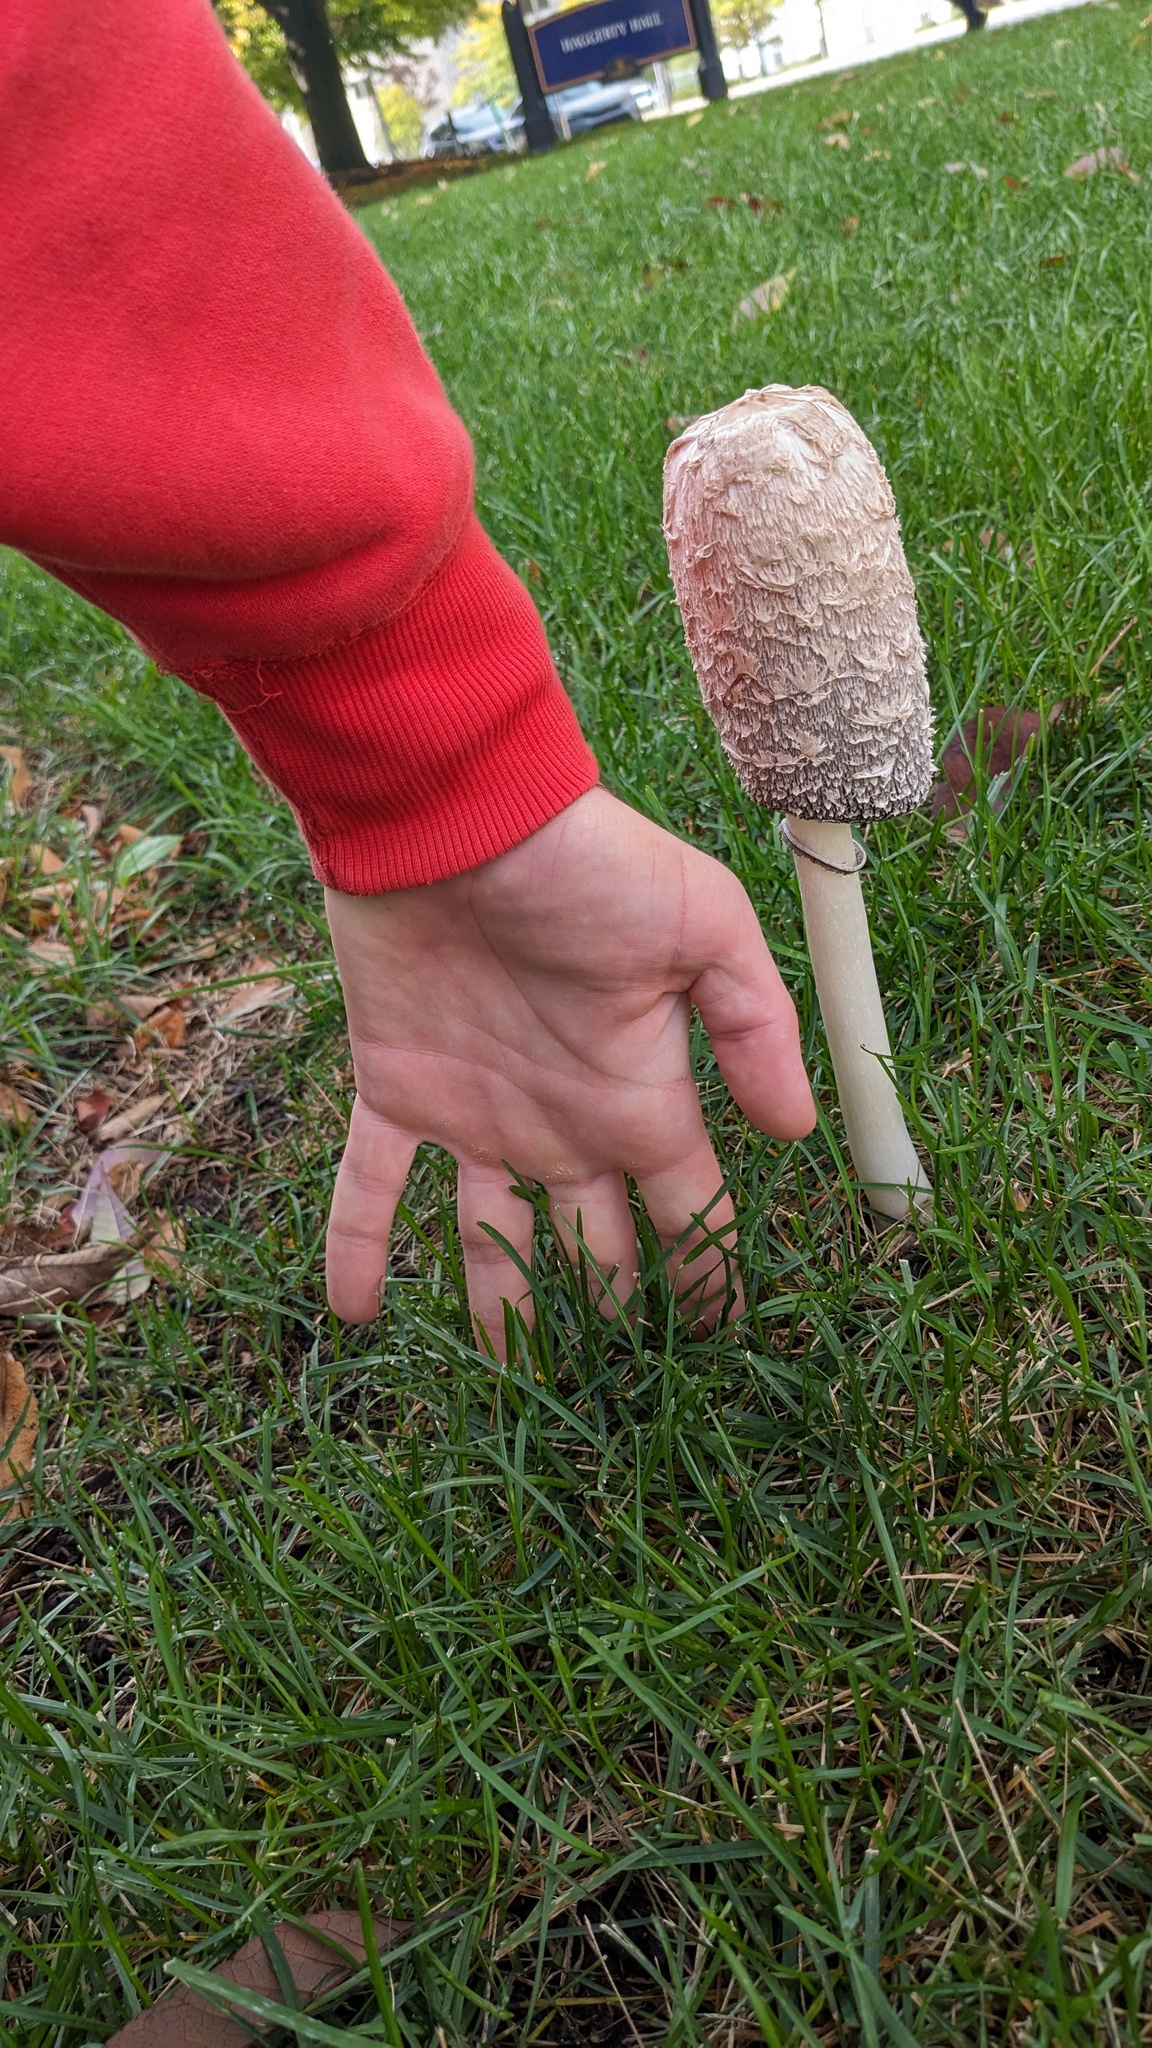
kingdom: Fungi
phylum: Basidiomycota
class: Agaricomycetes
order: Agaricales
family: Agaricaceae
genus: Coprinus
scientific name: Coprinus comatus
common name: Lawyer's wig
